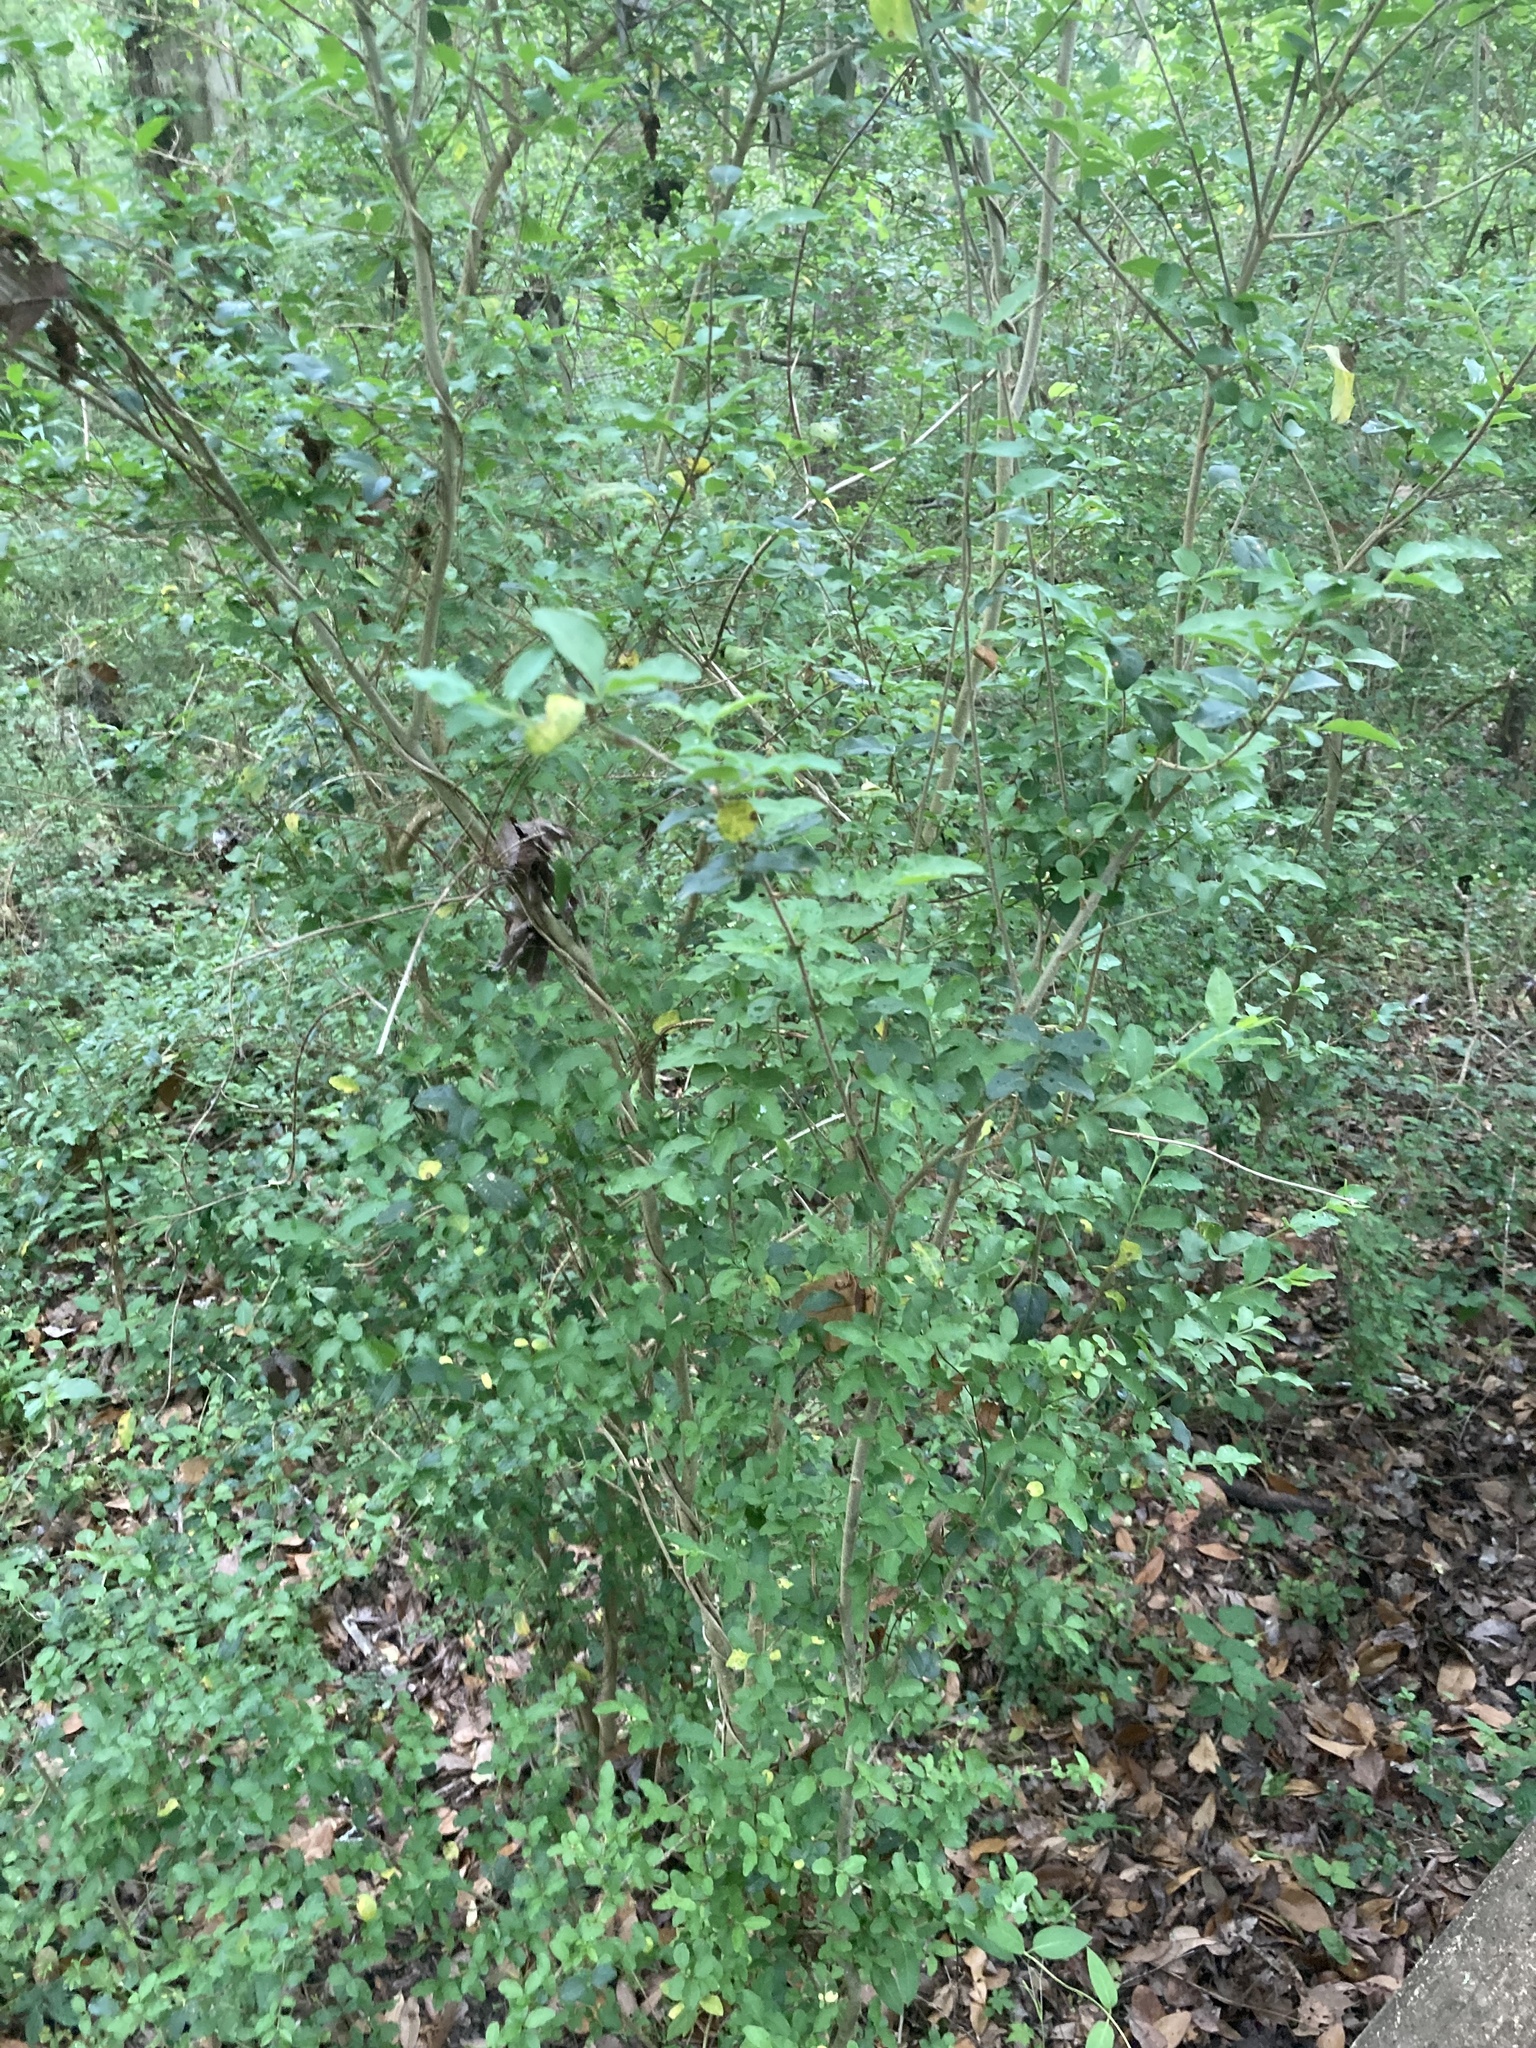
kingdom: Plantae
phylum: Tracheophyta
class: Magnoliopsida
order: Lamiales
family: Oleaceae
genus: Ligustrum
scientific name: Ligustrum sinense
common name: Chinese privet
